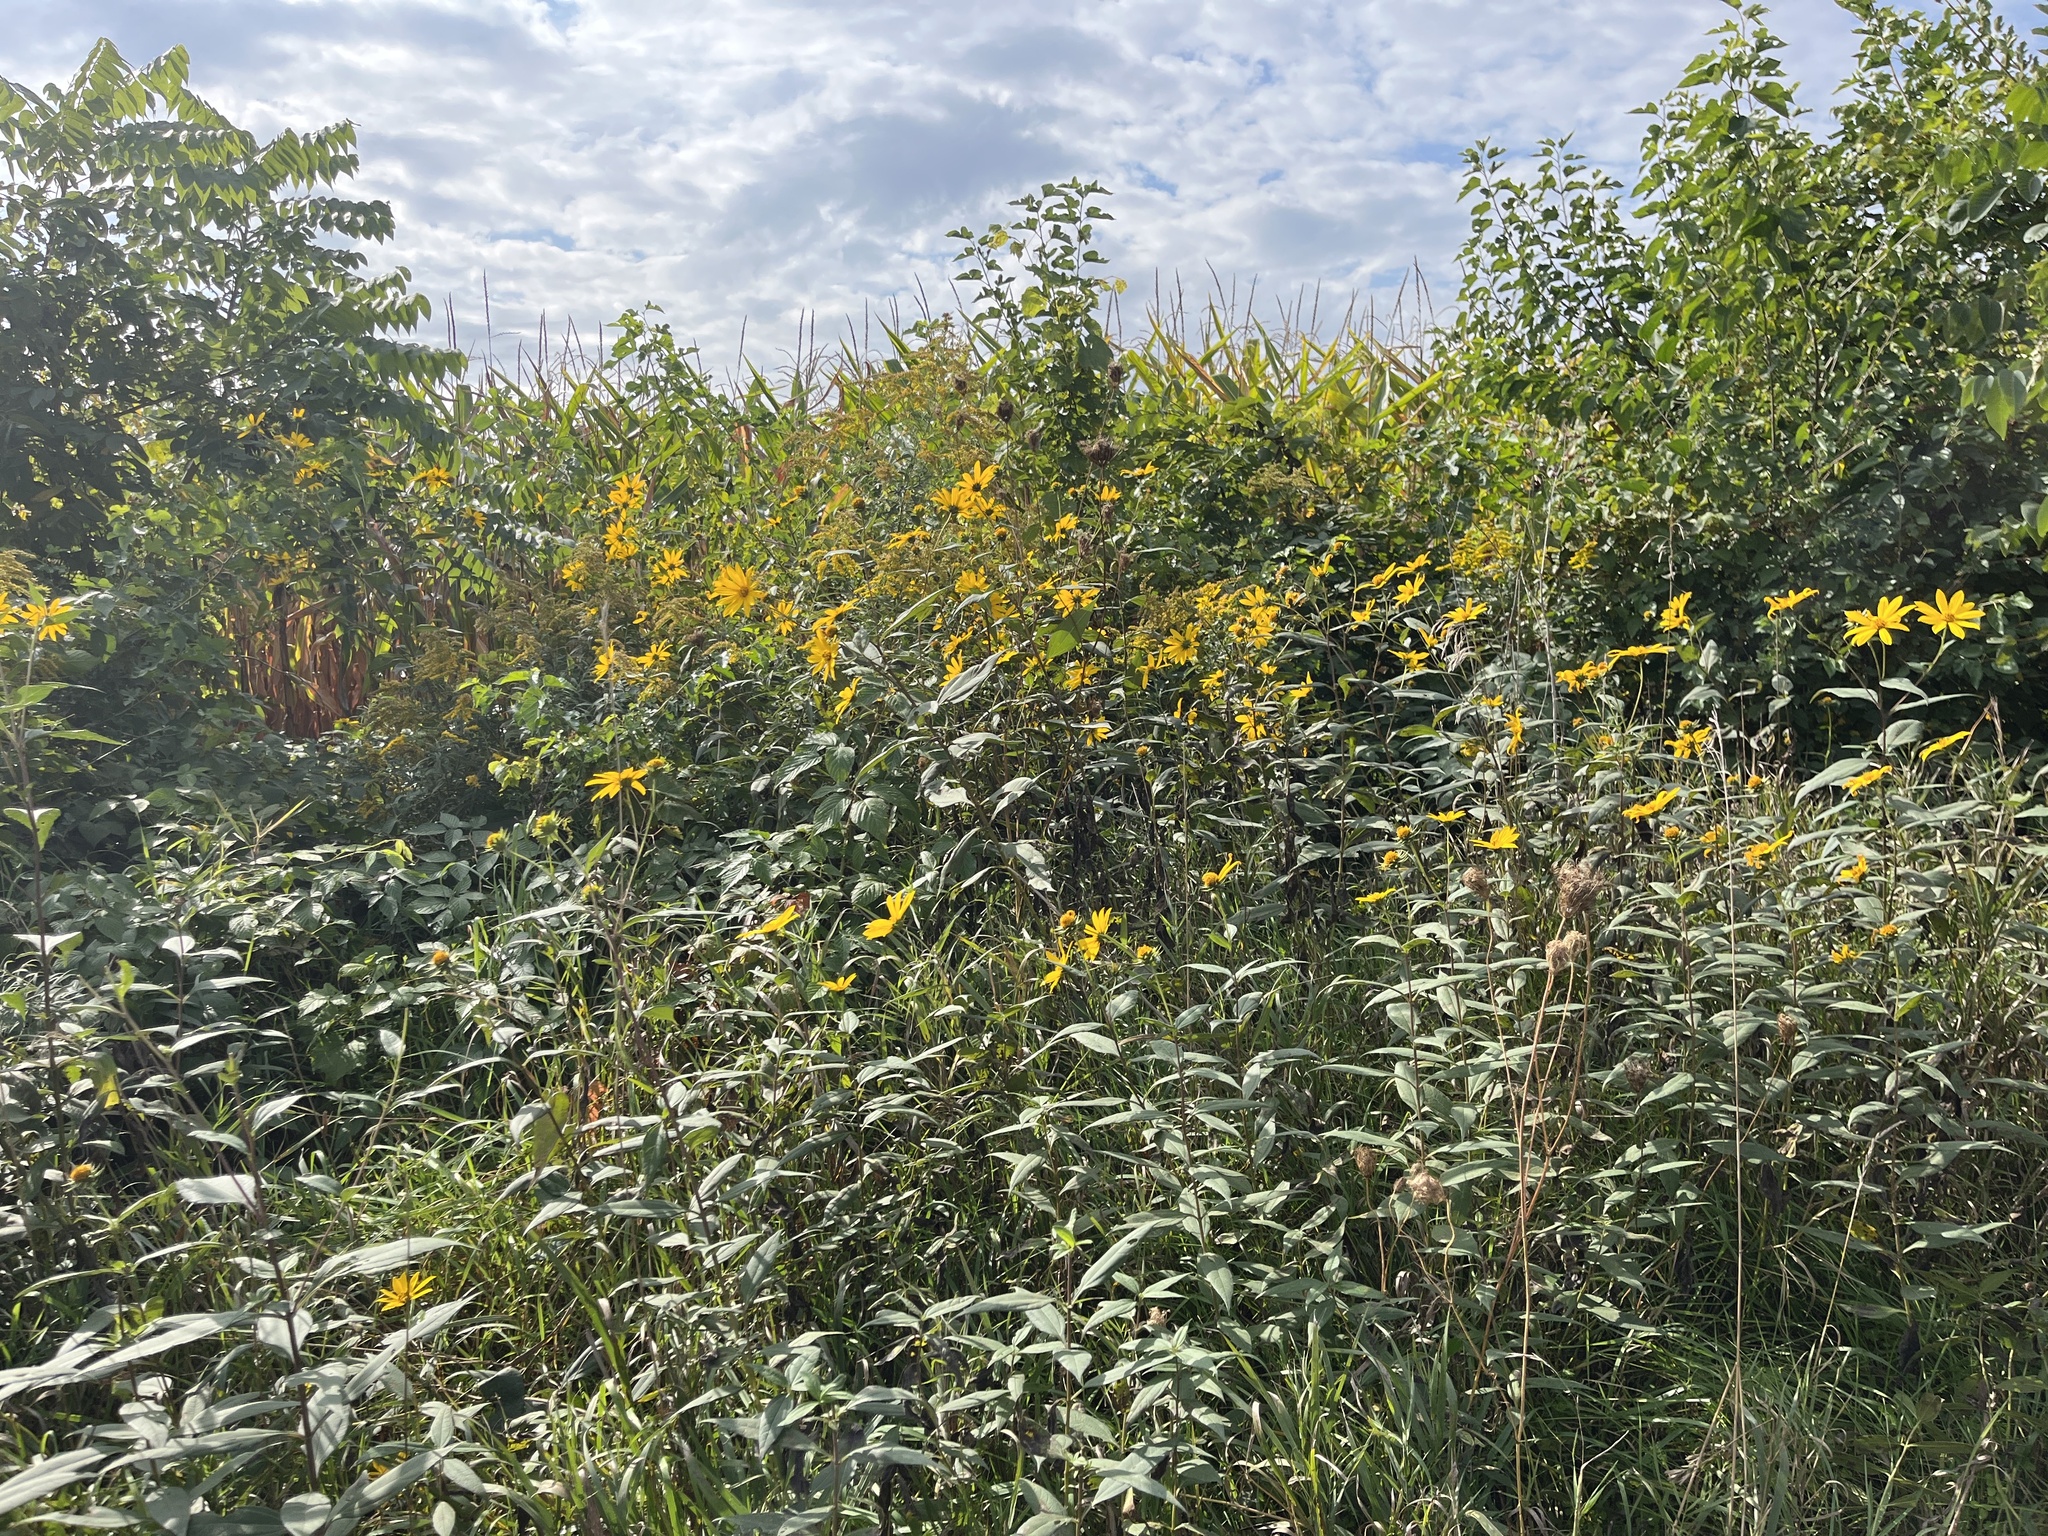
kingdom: Plantae
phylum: Tracheophyta
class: Magnoliopsida
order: Asterales
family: Asteraceae
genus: Helianthus
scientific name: Helianthus hirsutus
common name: Hairy sunflower
